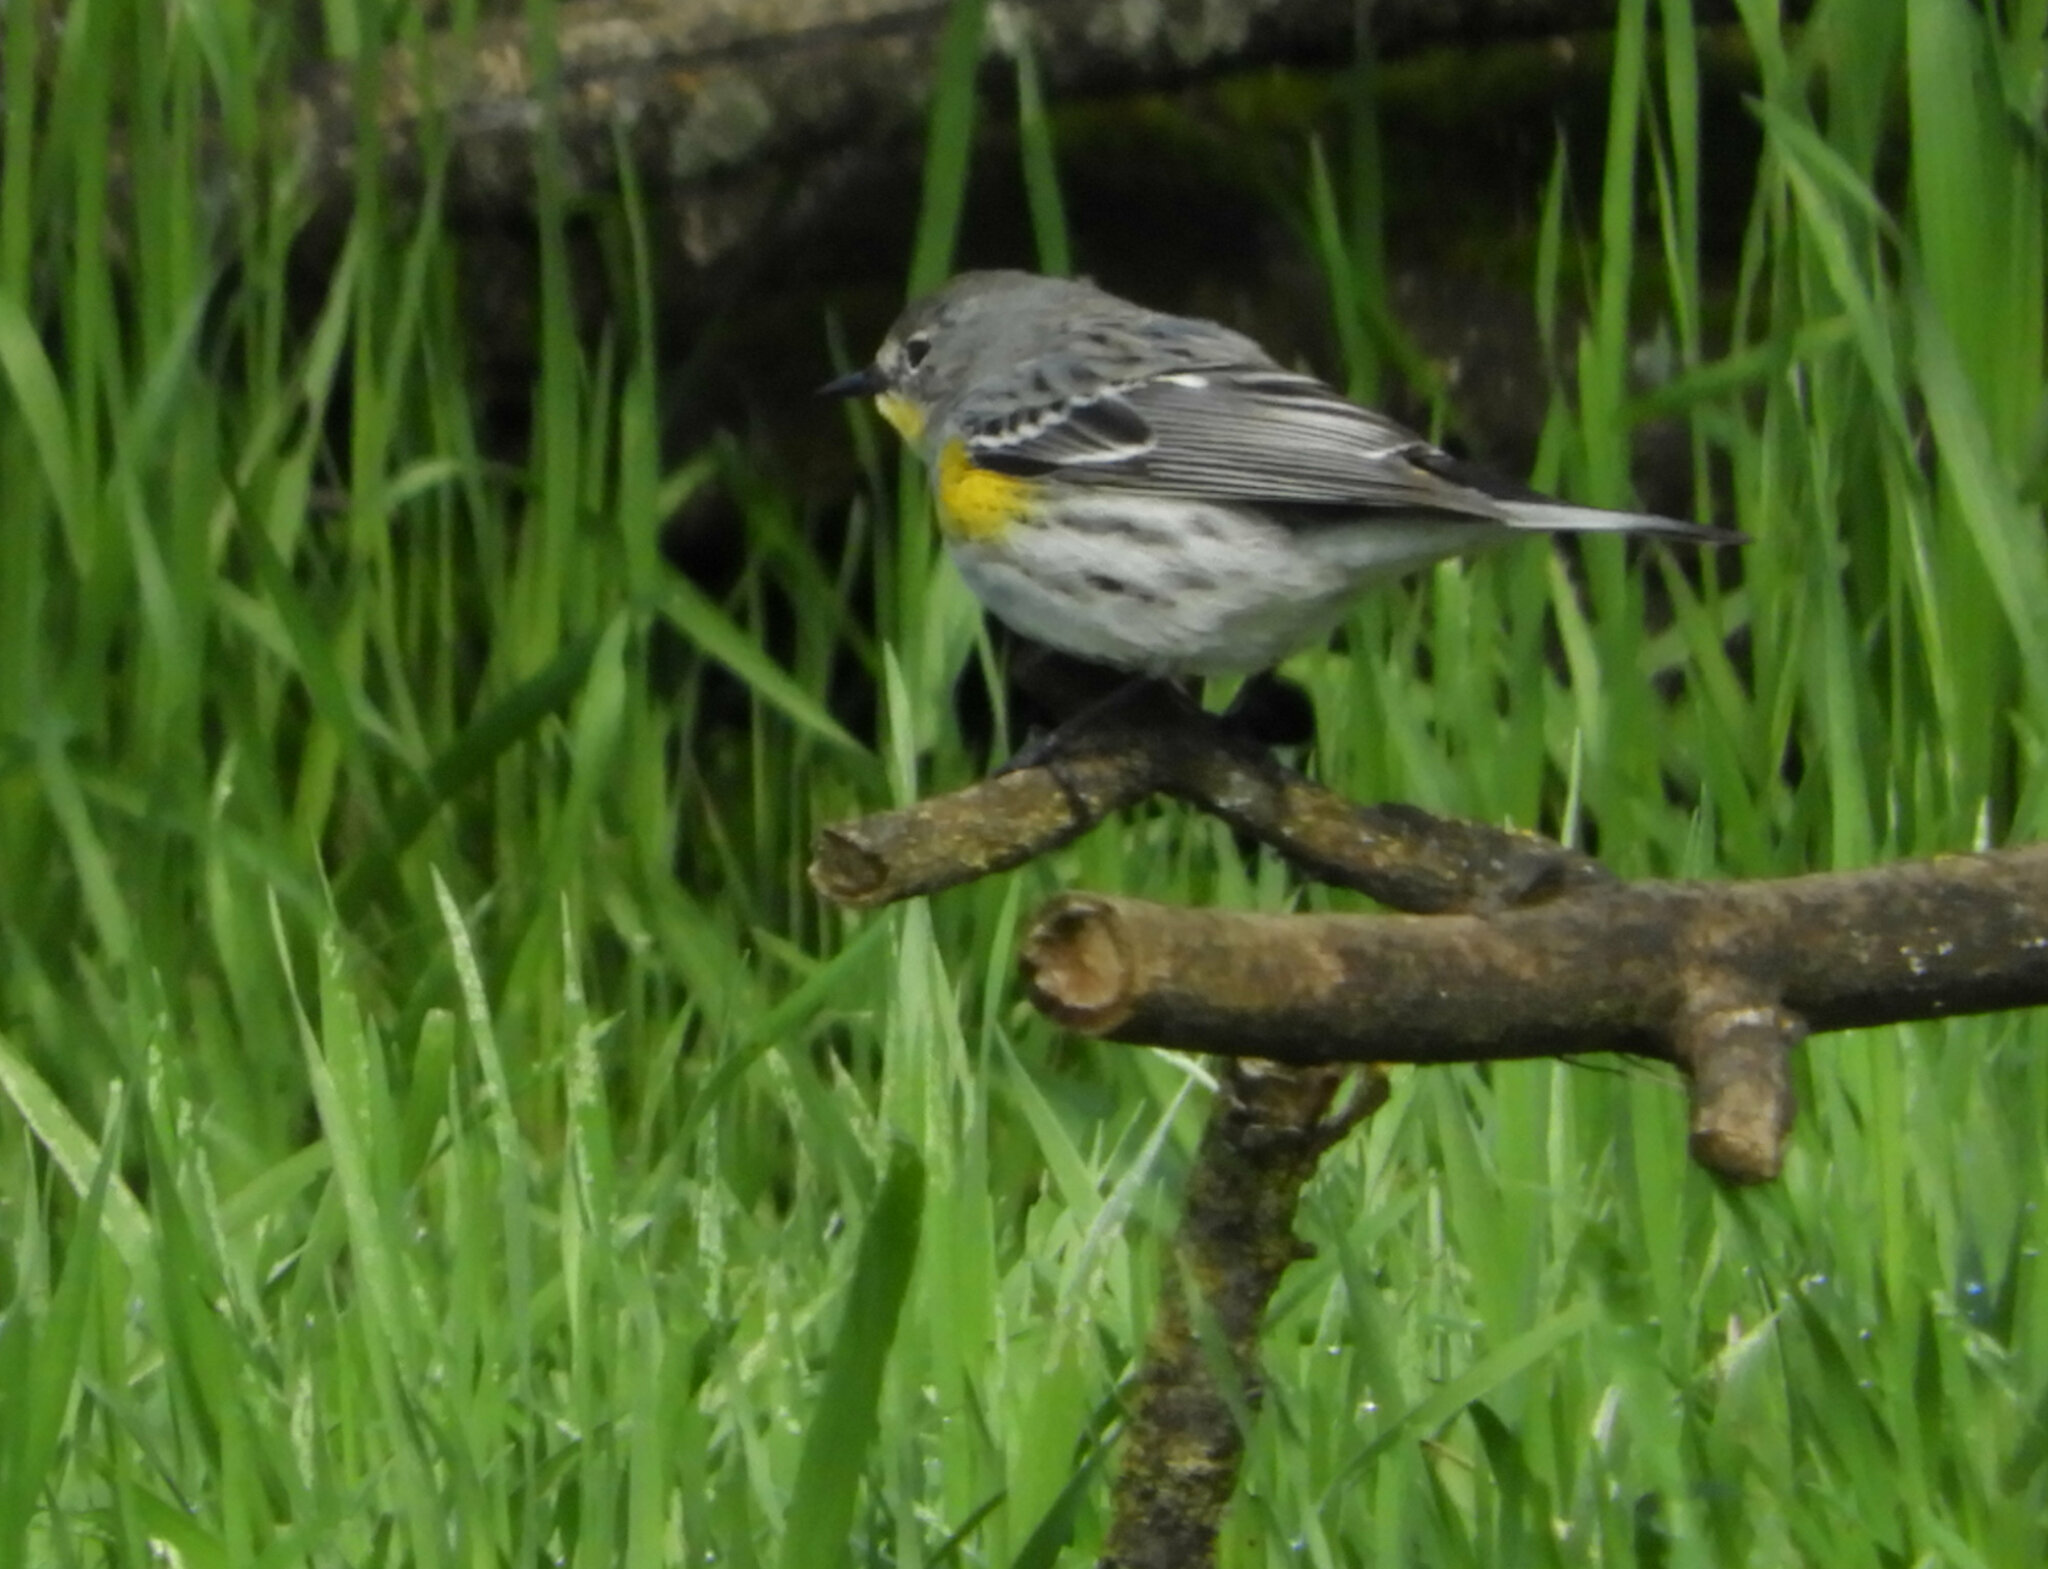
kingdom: Animalia
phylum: Chordata
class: Aves
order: Passeriformes
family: Parulidae
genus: Setophaga
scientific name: Setophaga auduboni
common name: Audubon's warbler
